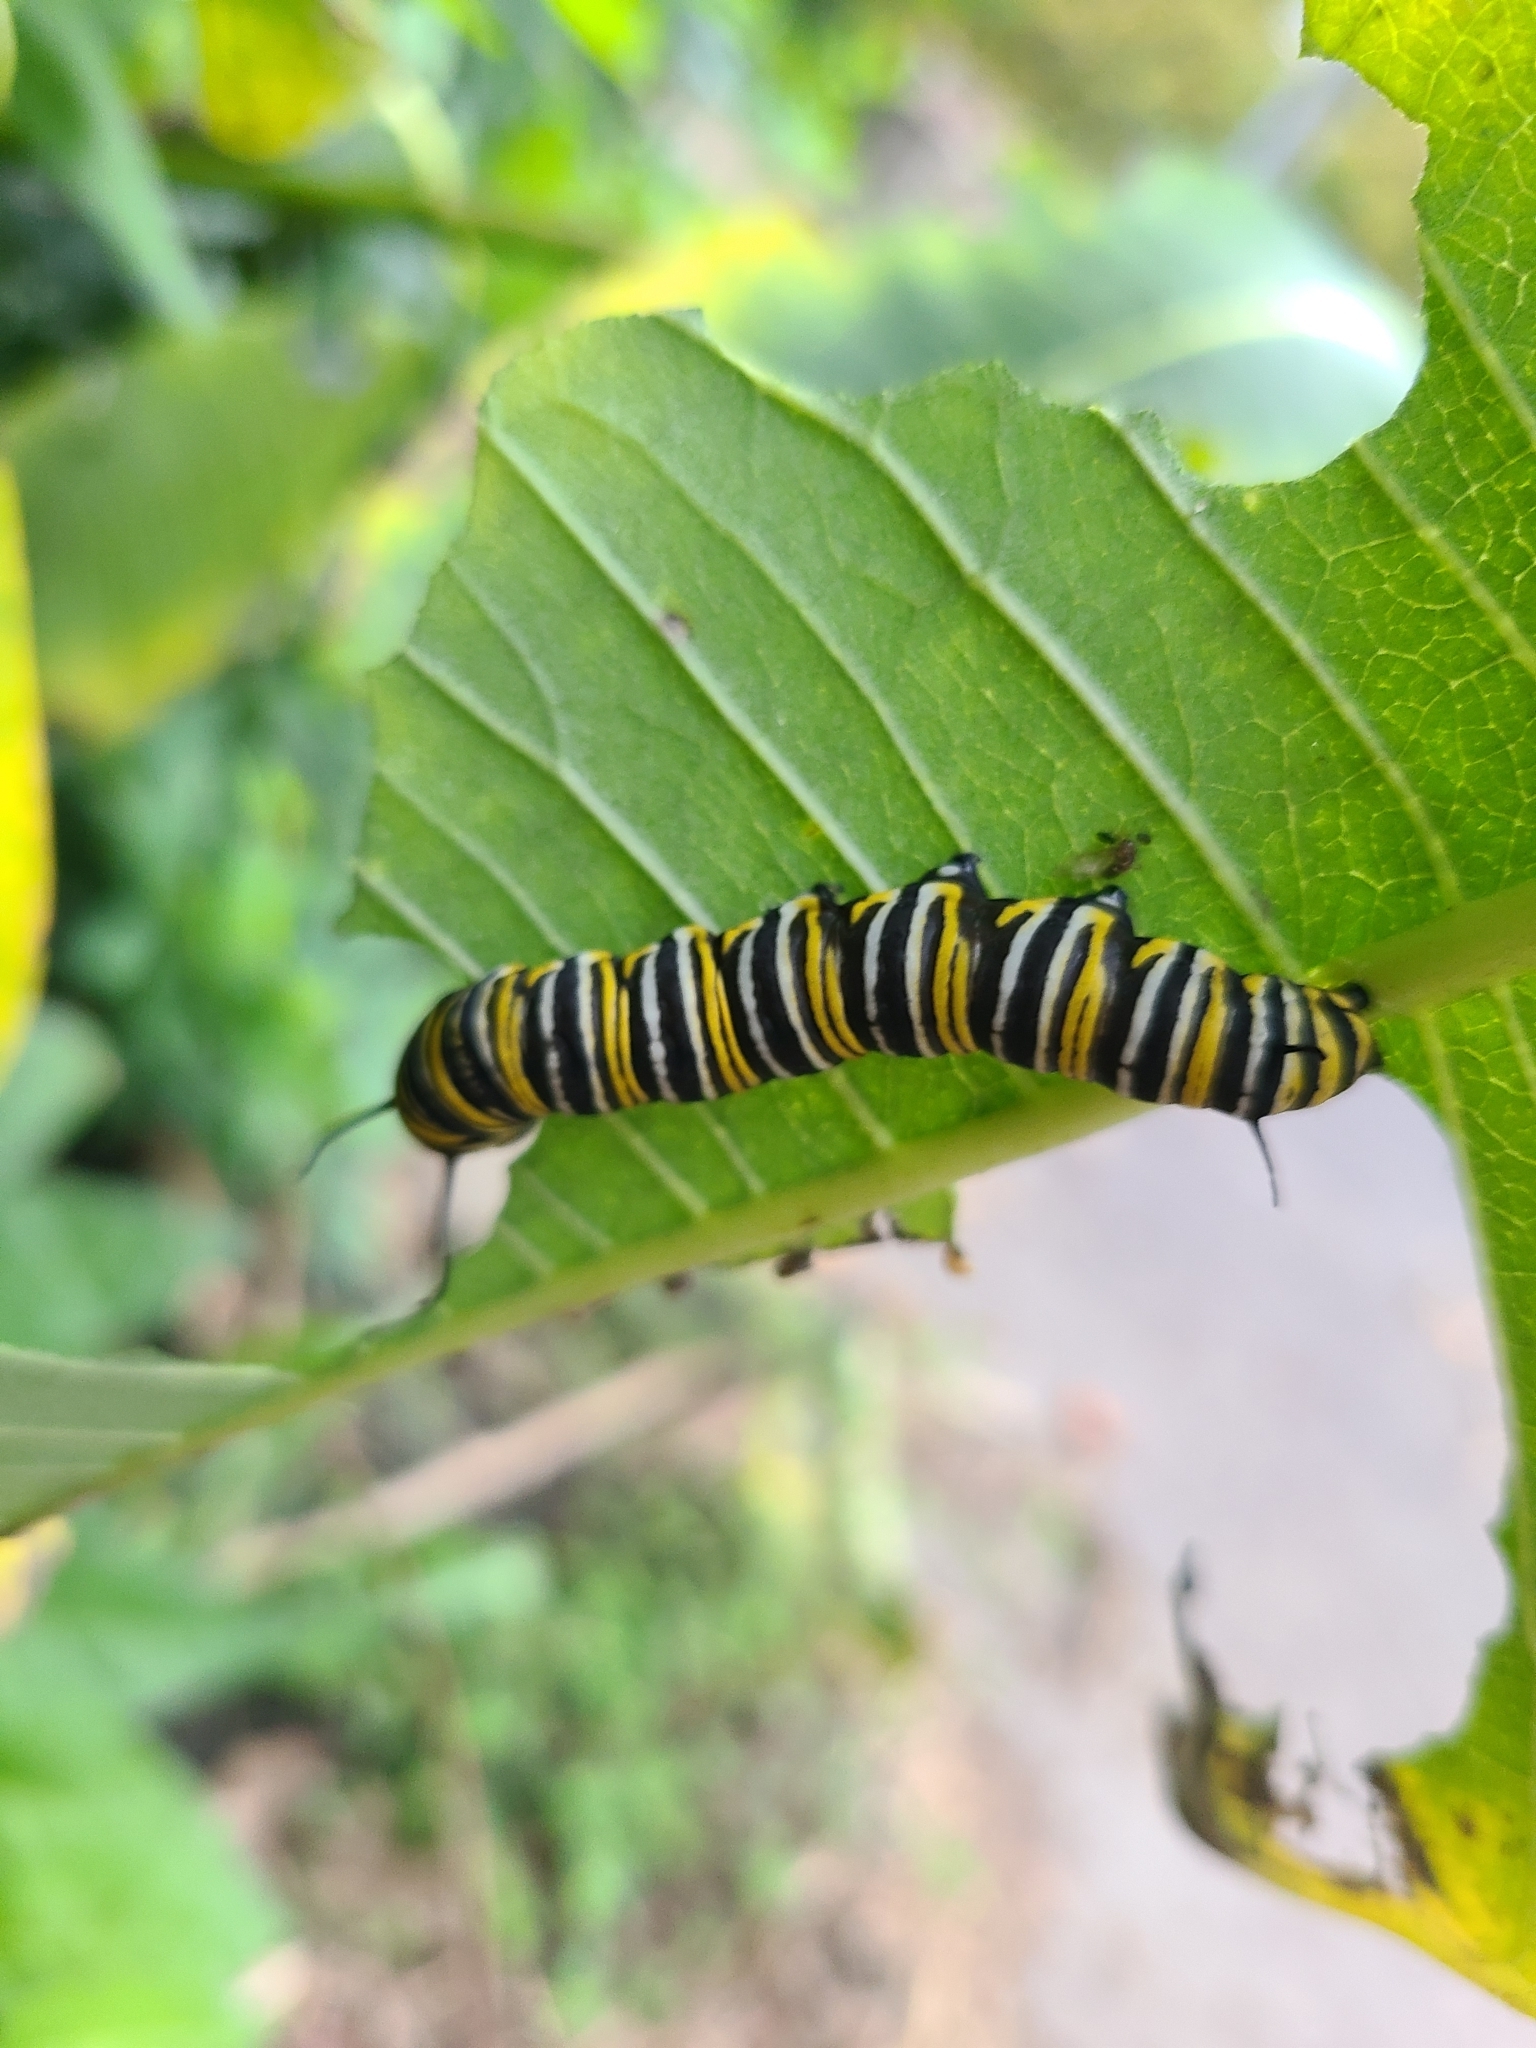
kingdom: Animalia
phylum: Arthropoda
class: Insecta
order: Lepidoptera
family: Nymphalidae
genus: Danaus
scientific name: Danaus plexippus
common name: Monarch
